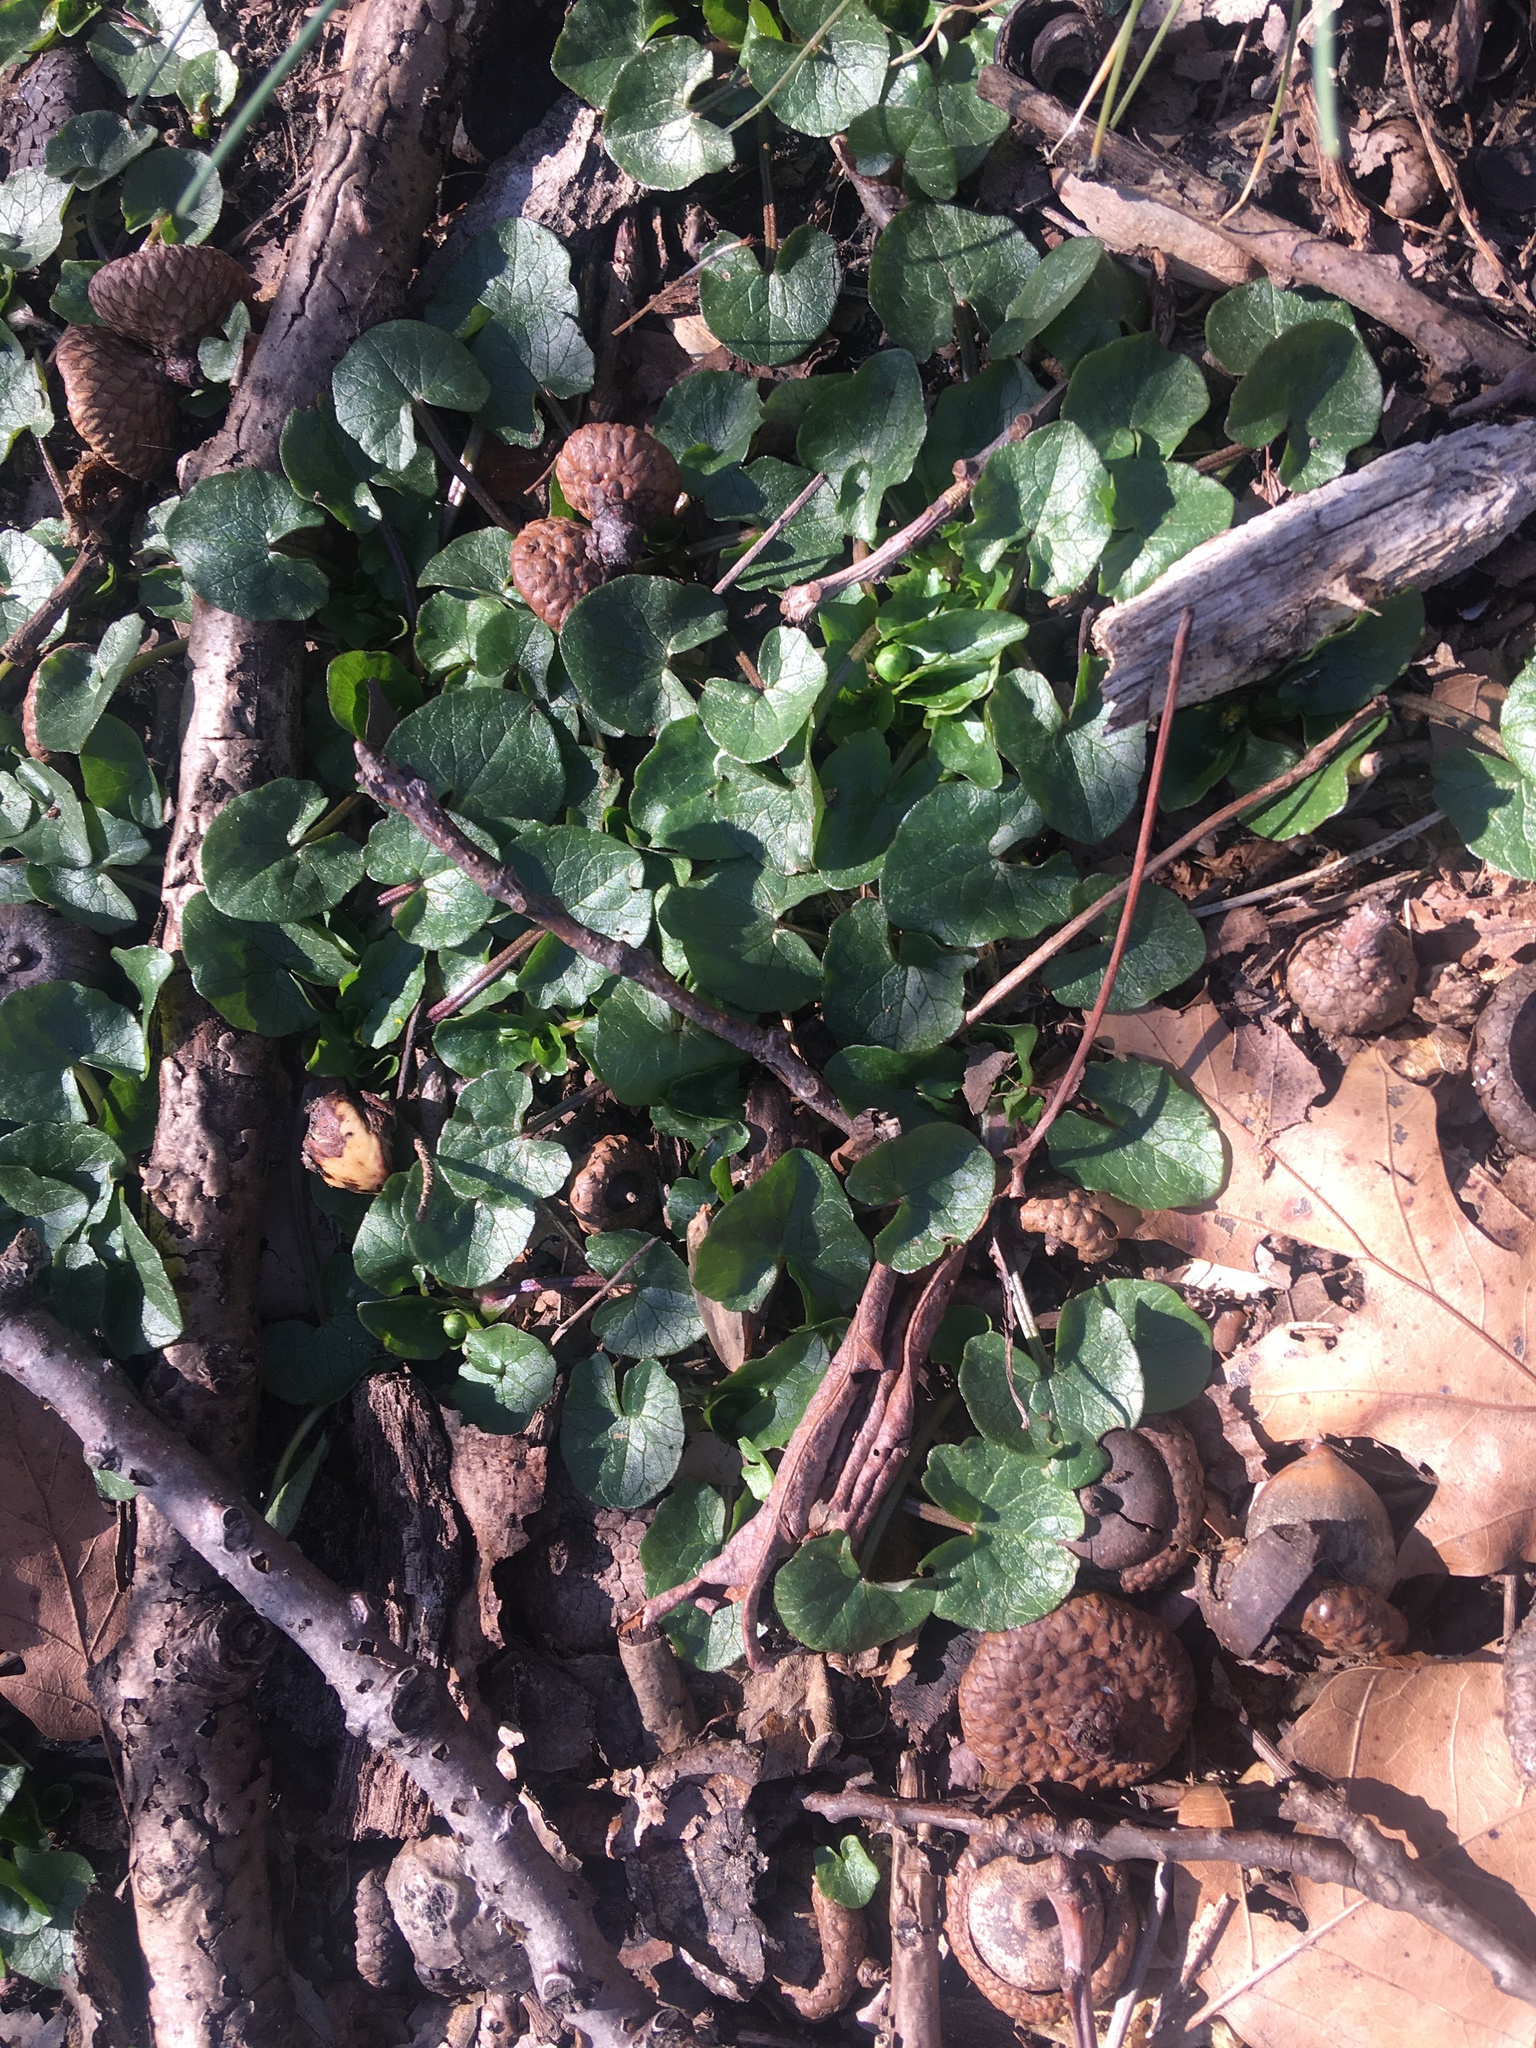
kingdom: Plantae
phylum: Tracheophyta
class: Magnoliopsida
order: Ranunculales
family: Ranunculaceae
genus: Ficaria
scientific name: Ficaria verna
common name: Lesser celandine
